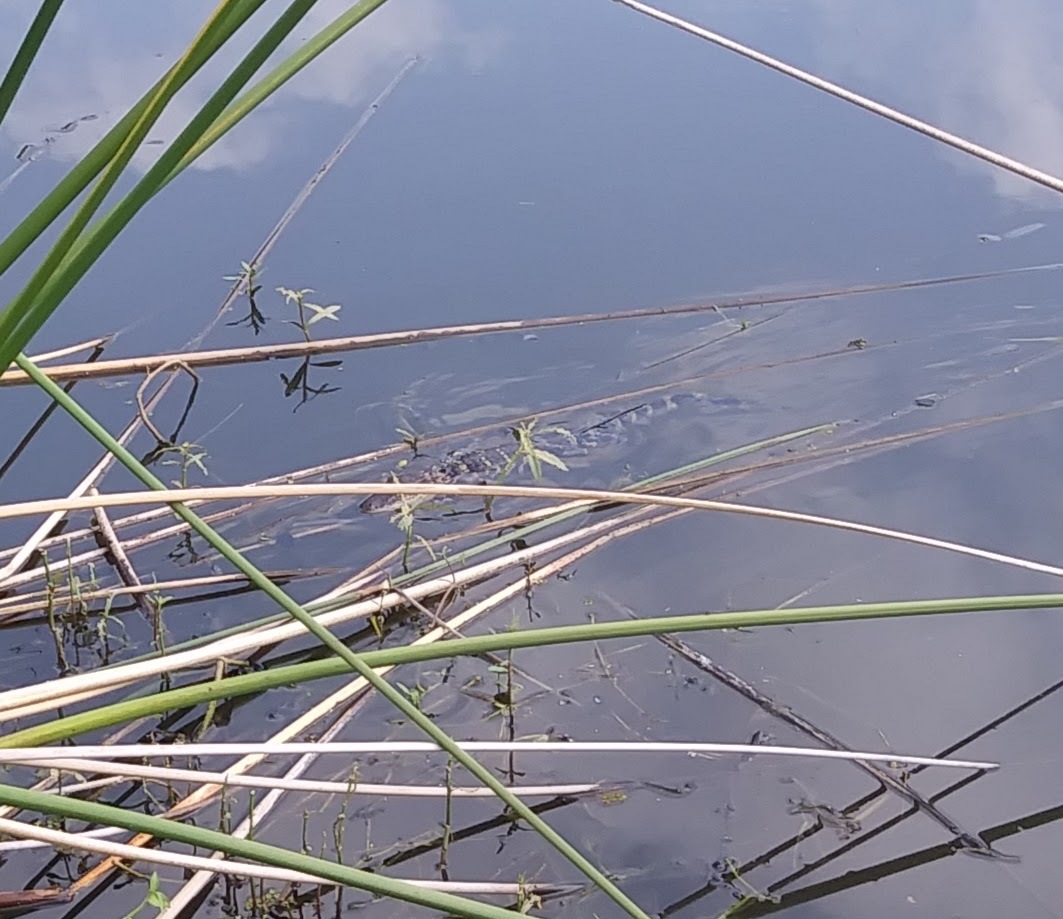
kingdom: Animalia
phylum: Chordata
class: Crocodylia
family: Alligatoridae
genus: Alligator
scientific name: Alligator mississippiensis
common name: American alligator
